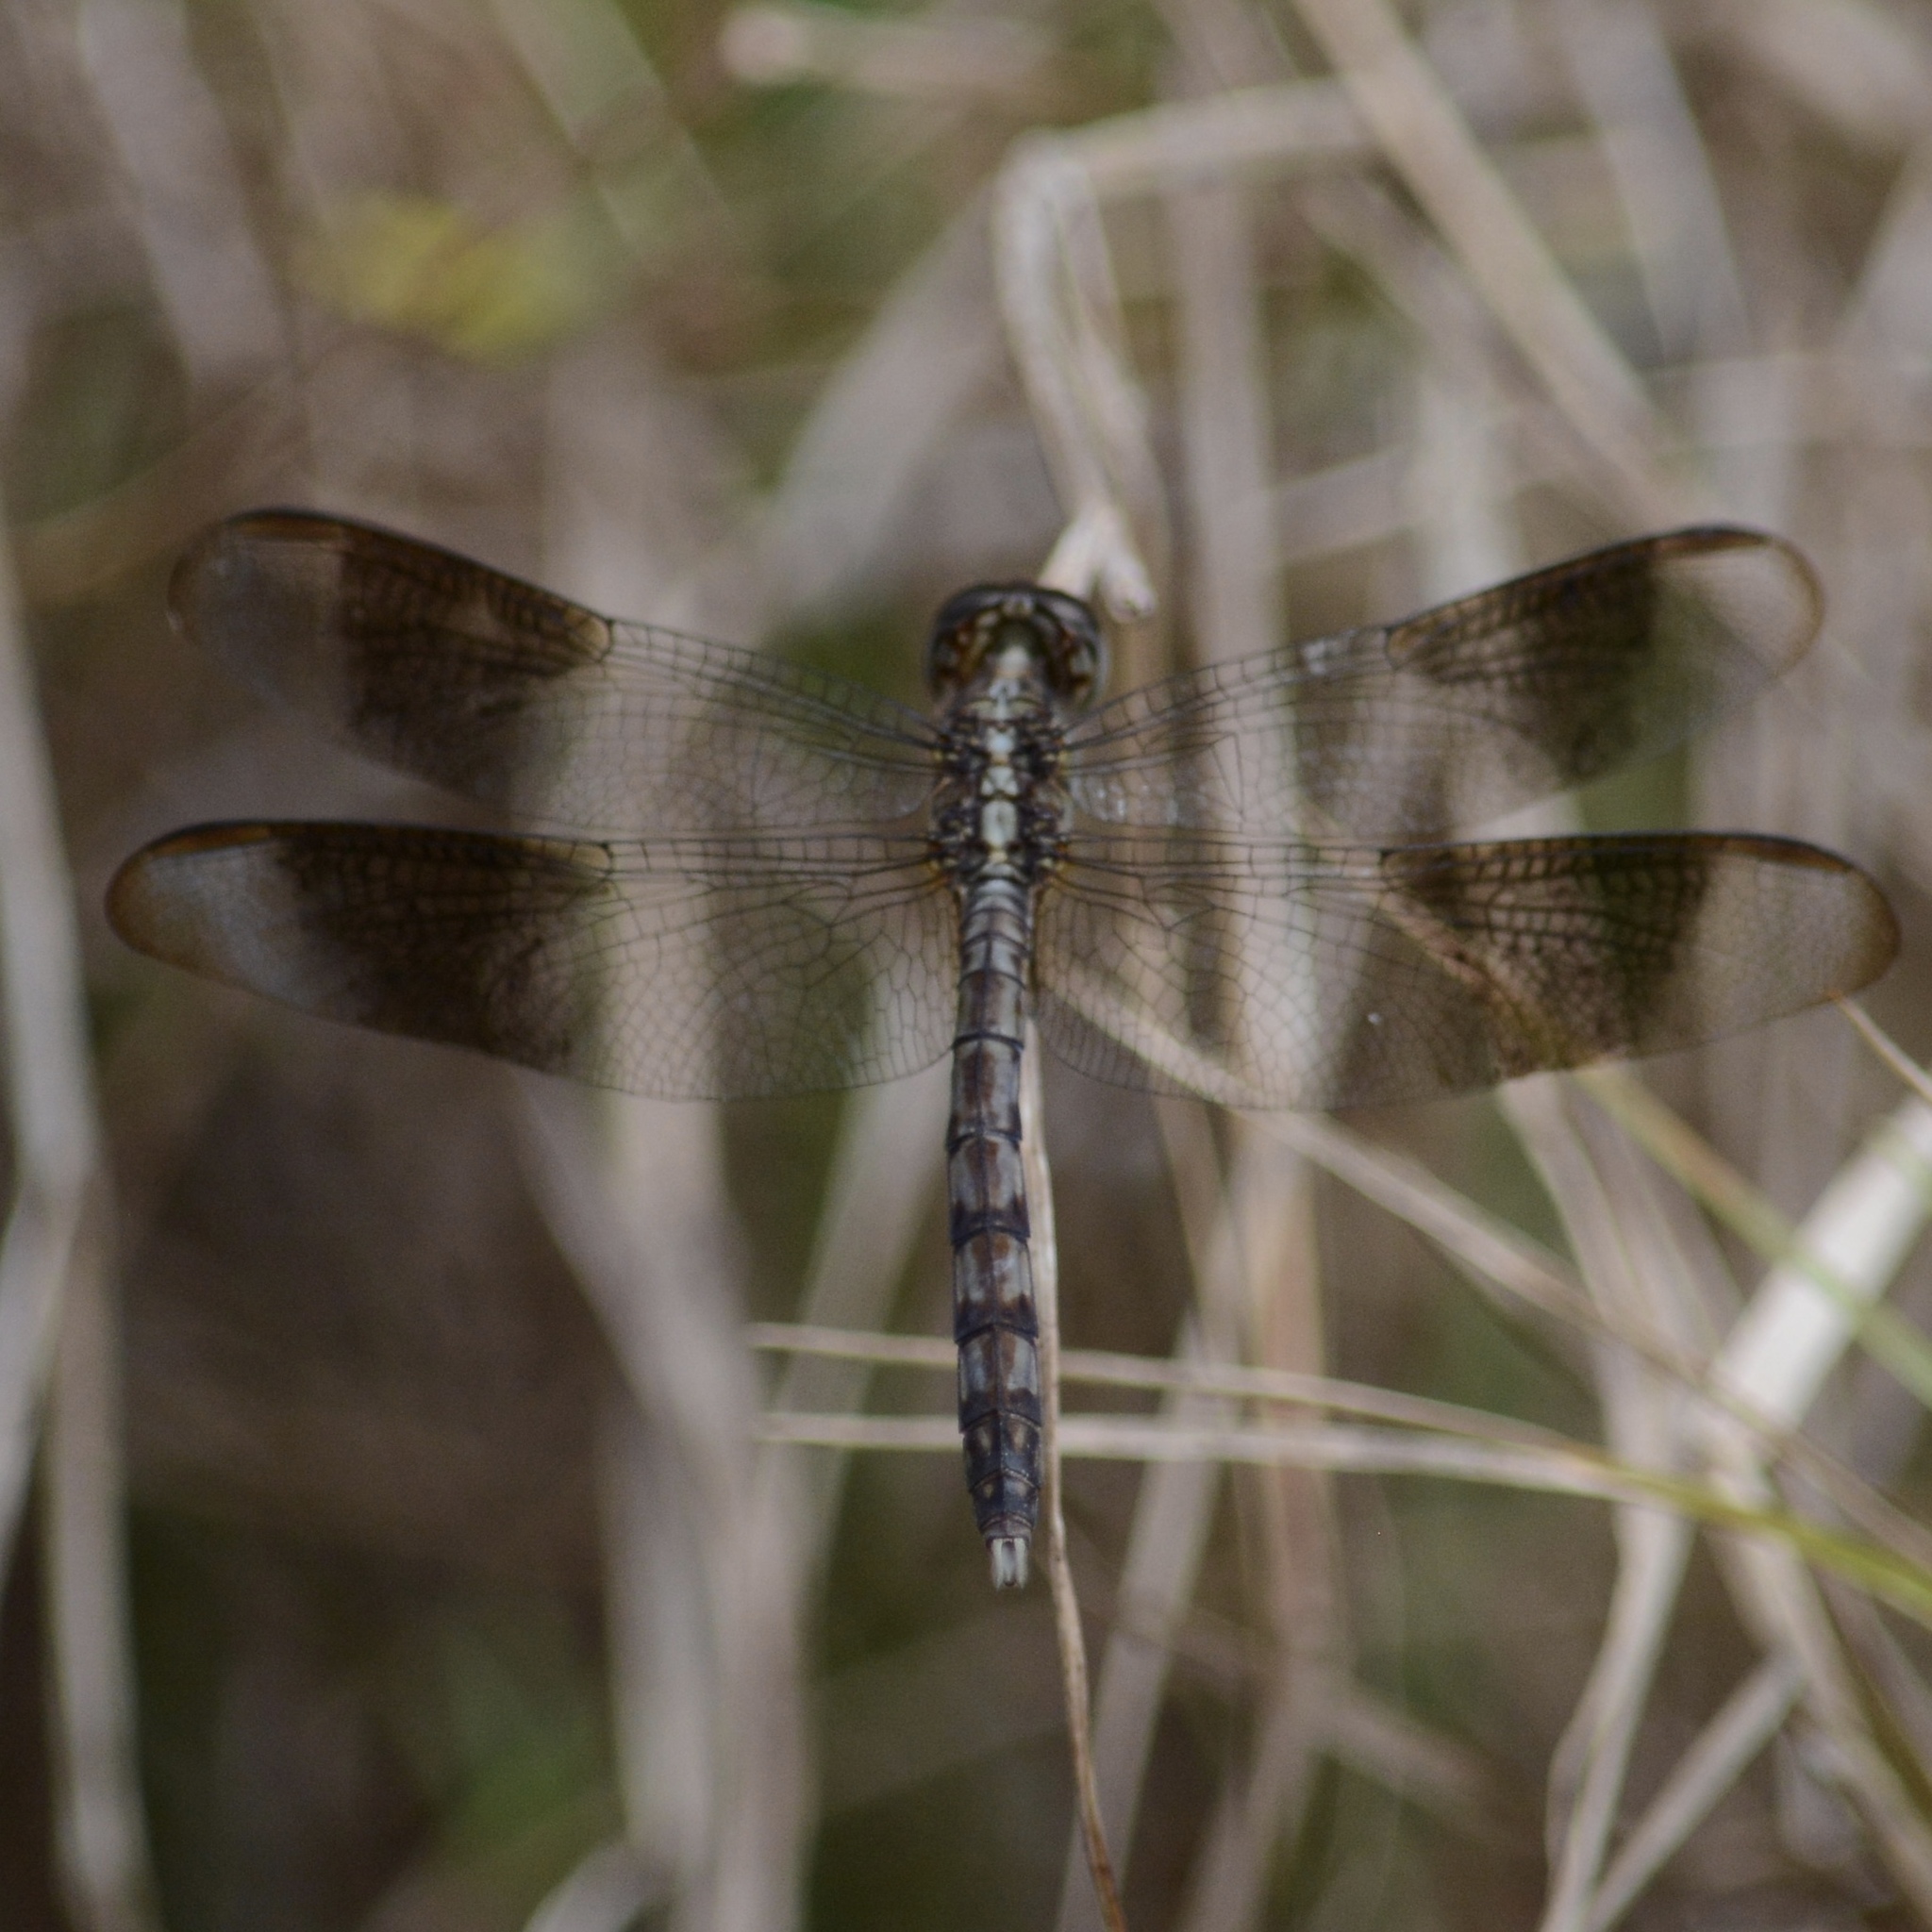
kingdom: Animalia
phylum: Arthropoda
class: Insecta
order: Odonata
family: Libellulidae
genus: Erythrodiplax
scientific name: Erythrodiplax umbrata
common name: Band-winged dragonlet
